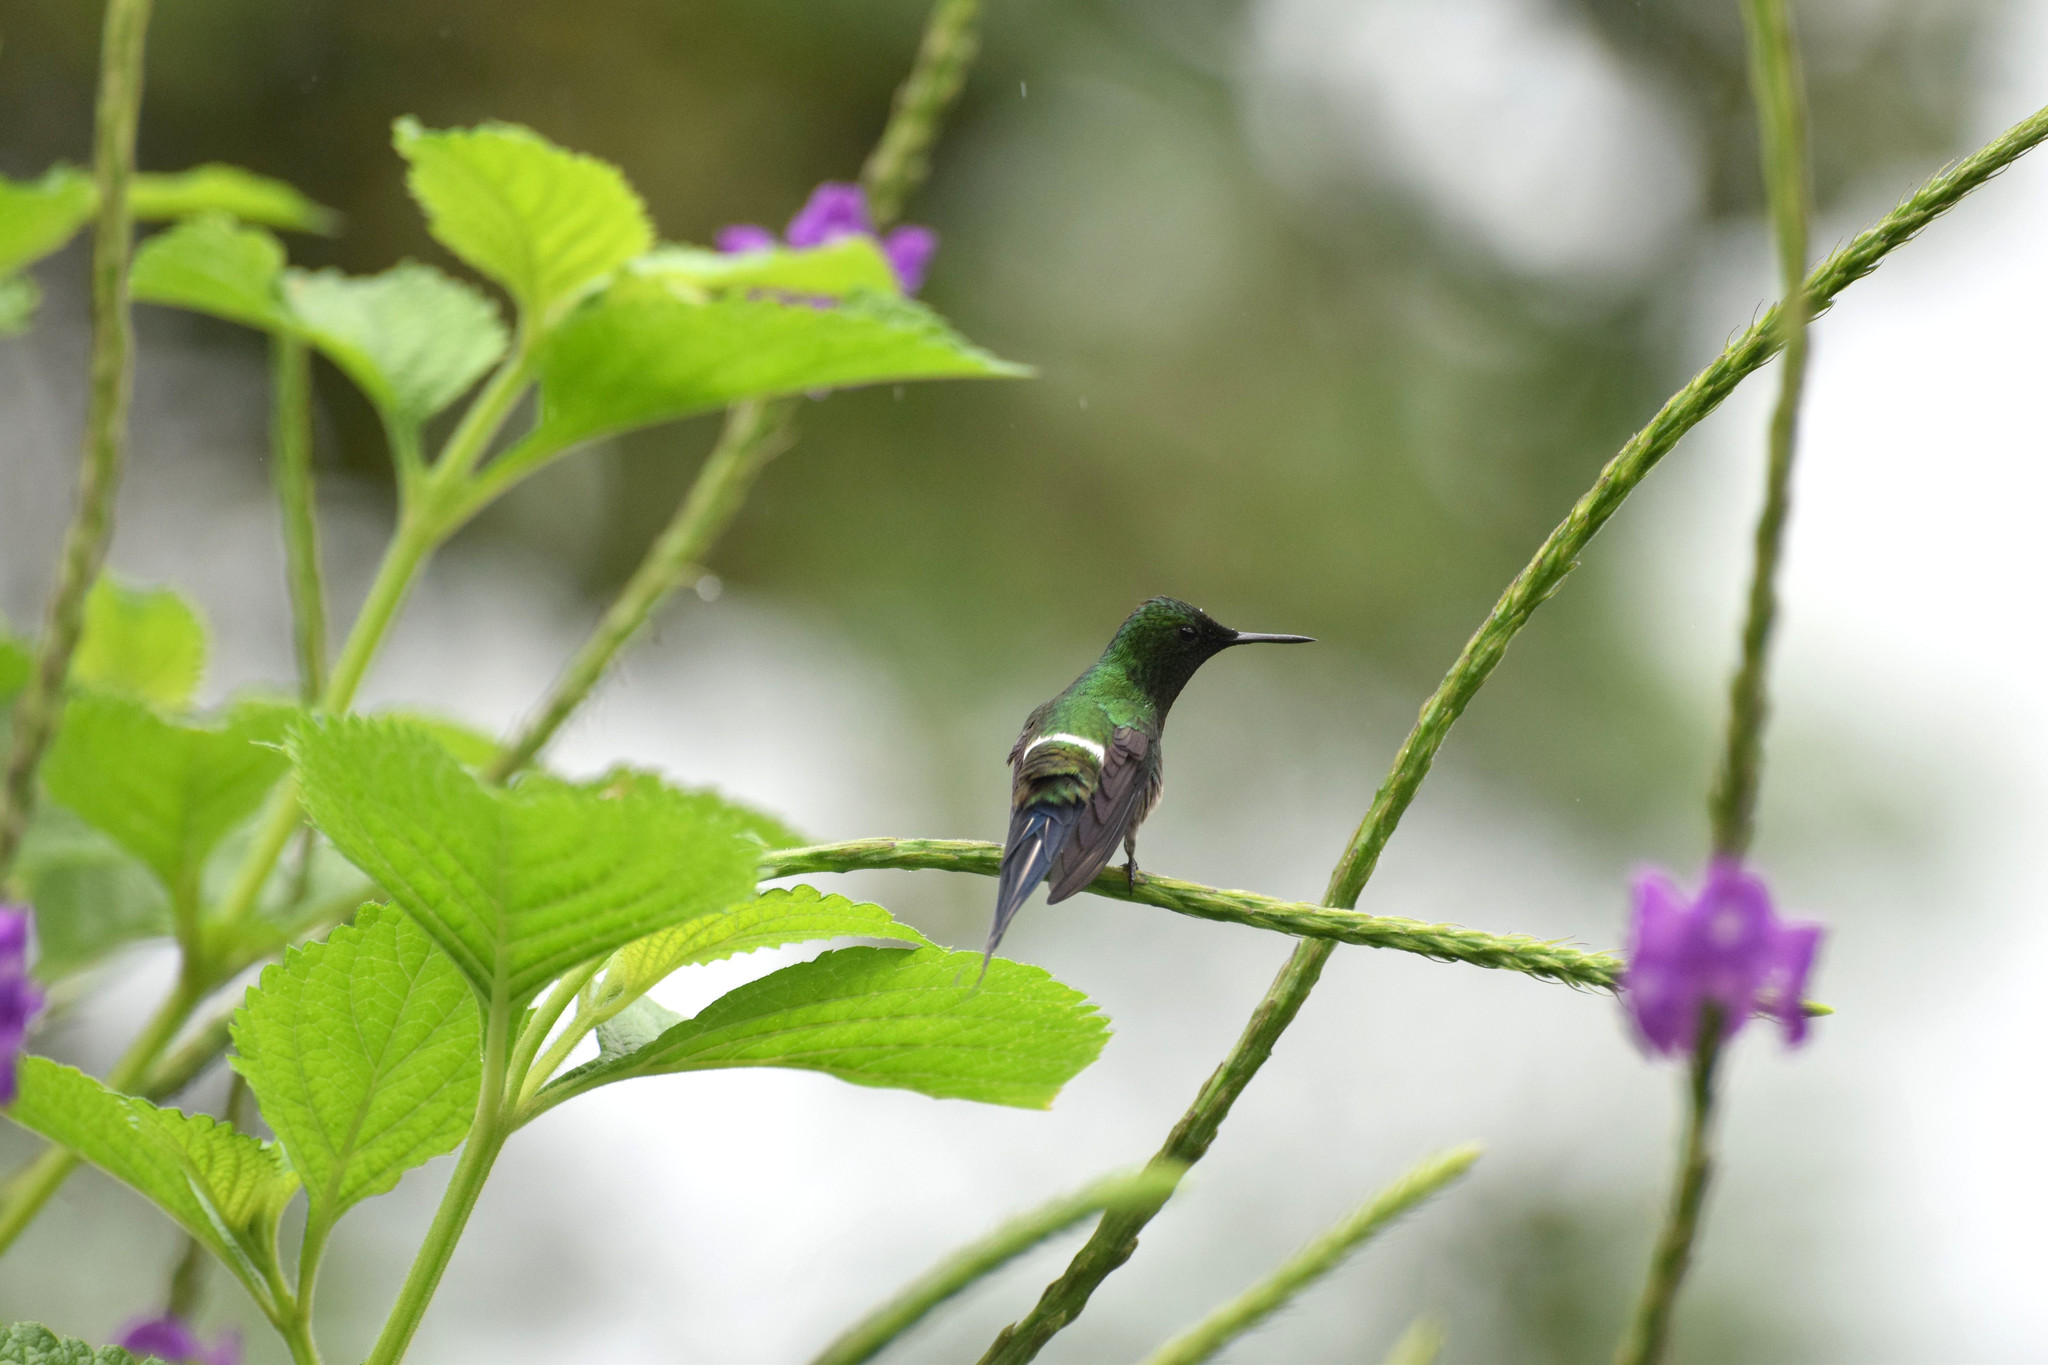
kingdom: Animalia
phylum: Chordata
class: Aves
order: Apodiformes
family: Trochilidae
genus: Discosura
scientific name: Discosura conversii
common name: Green thorntail
